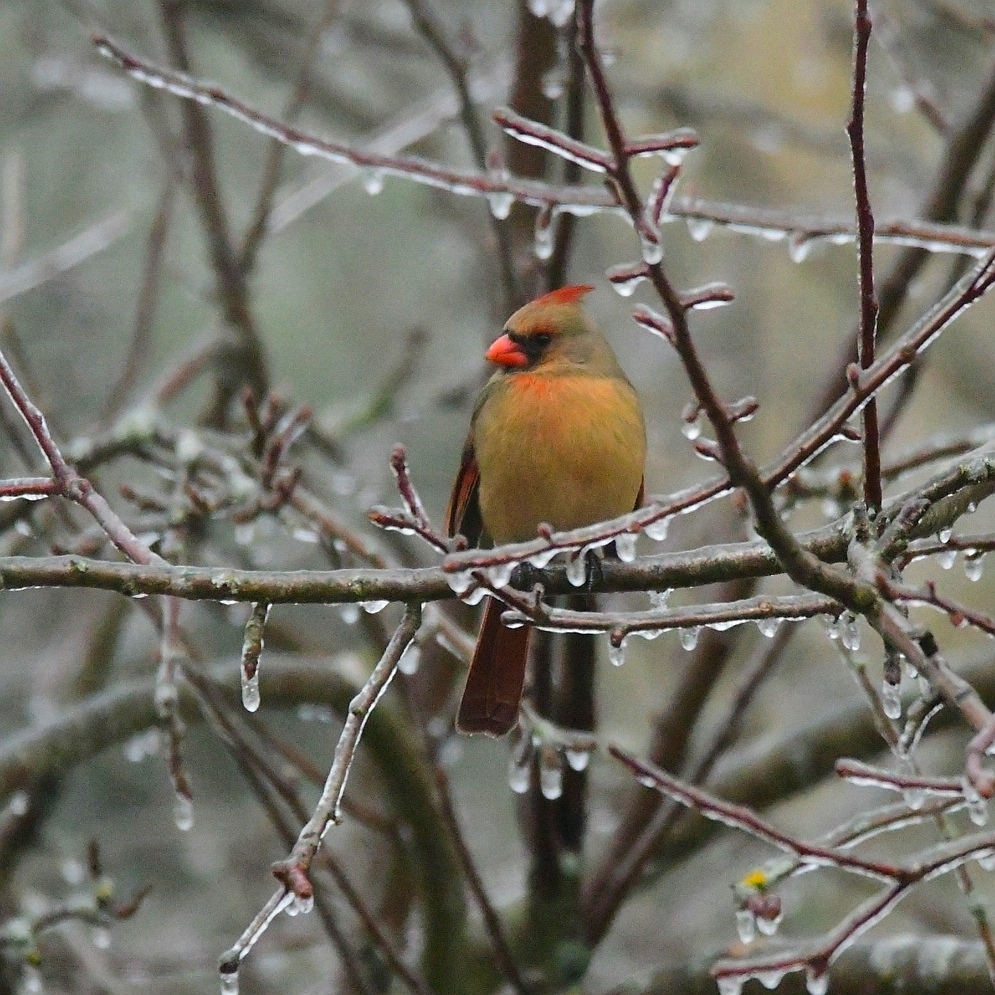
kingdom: Animalia
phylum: Chordata
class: Aves
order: Passeriformes
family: Cardinalidae
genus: Cardinalis
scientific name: Cardinalis cardinalis
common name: Northern cardinal
